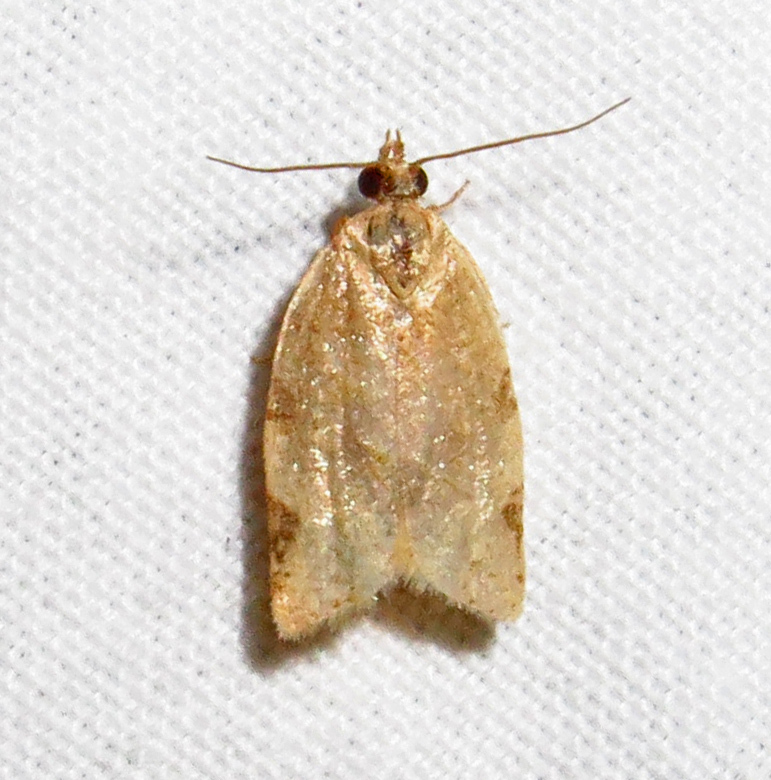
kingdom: Animalia
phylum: Arthropoda
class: Insecta
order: Lepidoptera
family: Tortricidae
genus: Clepsis
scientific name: Clepsis virescana
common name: Greenish apple moth
